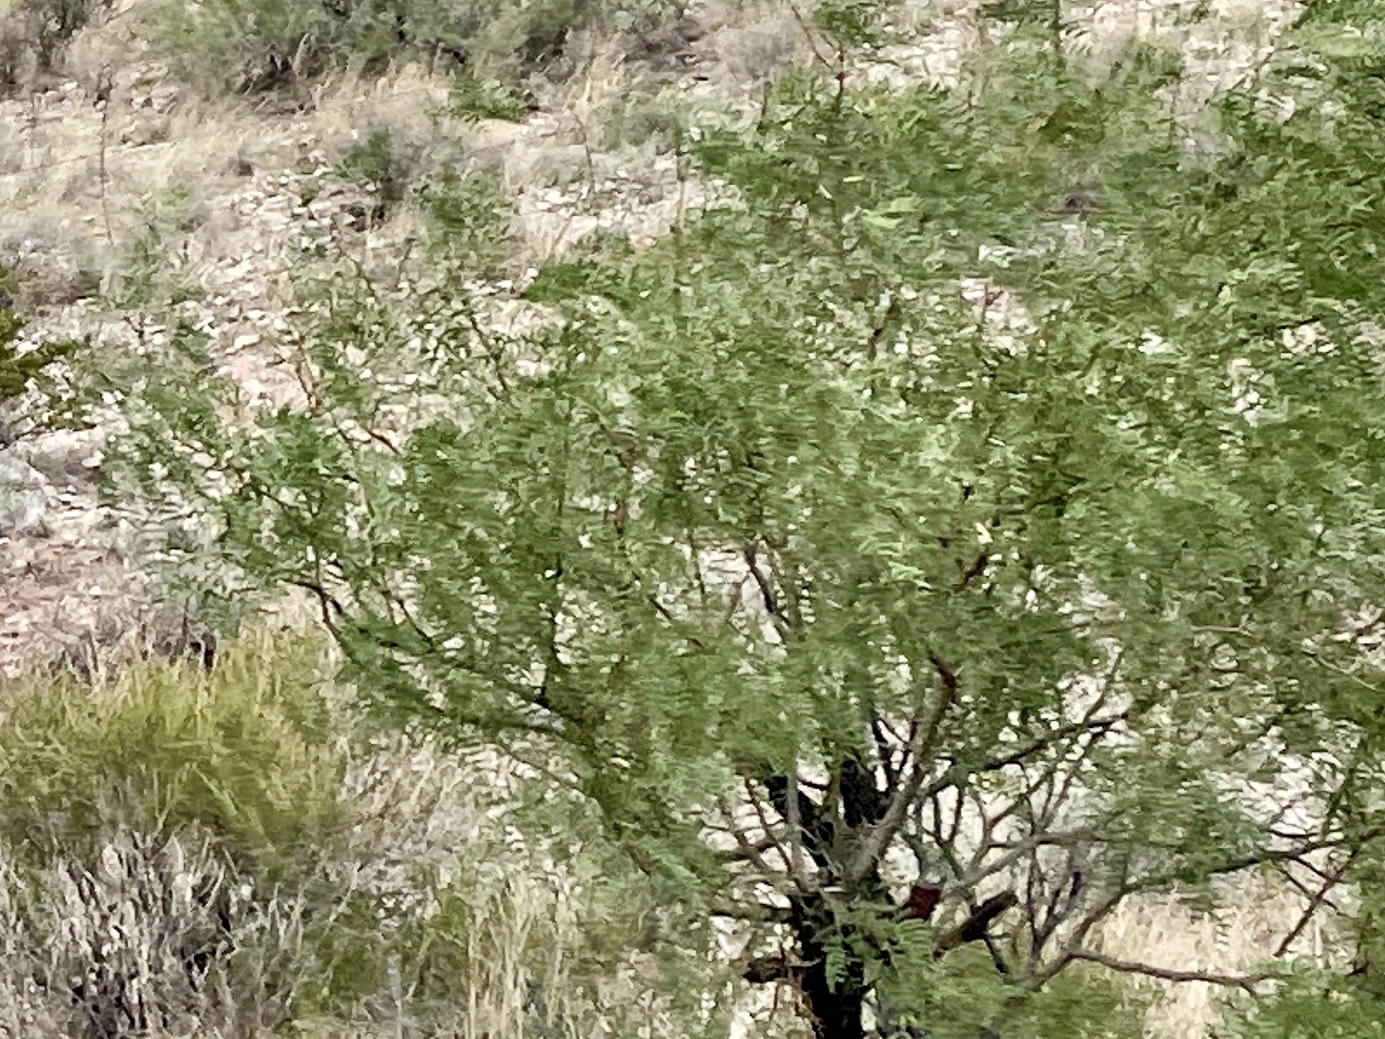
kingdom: Plantae
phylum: Tracheophyta
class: Magnoliopsida
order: Fabales
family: Fabaceae
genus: Prosopis
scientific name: Prosopis glandulosa
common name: Honey mesquite
